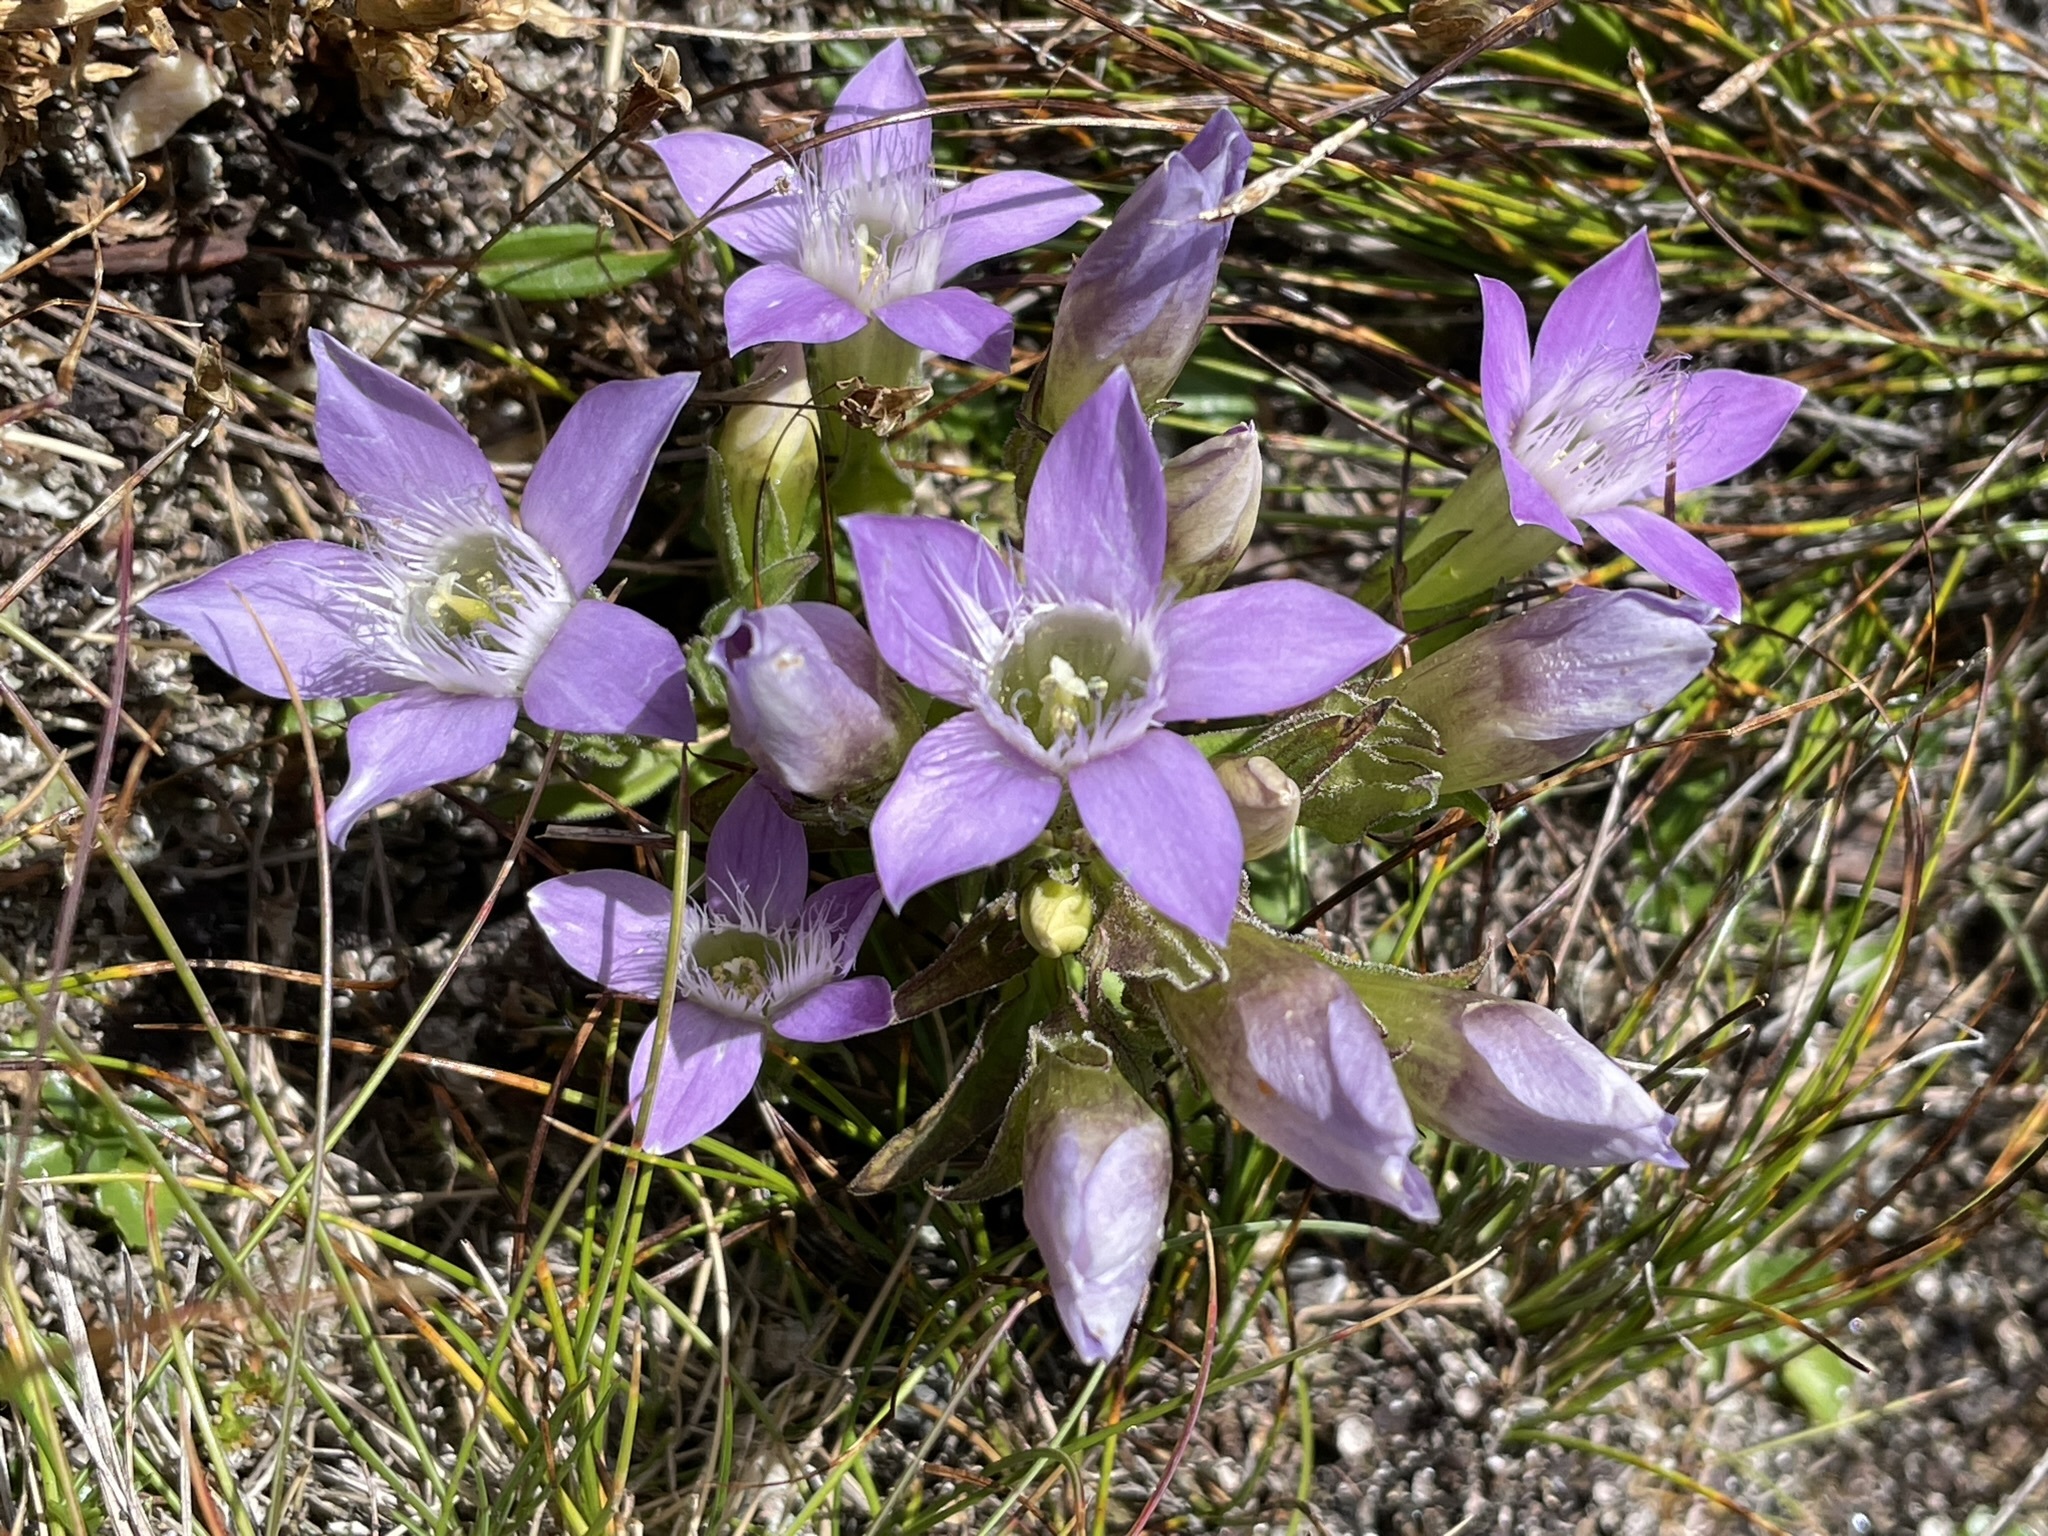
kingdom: Plantae
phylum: Tracheophyta
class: Magnoliopsida
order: Gentianales
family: Gentianaceae
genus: Gentianella
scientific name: Gentianella obtusifolia
